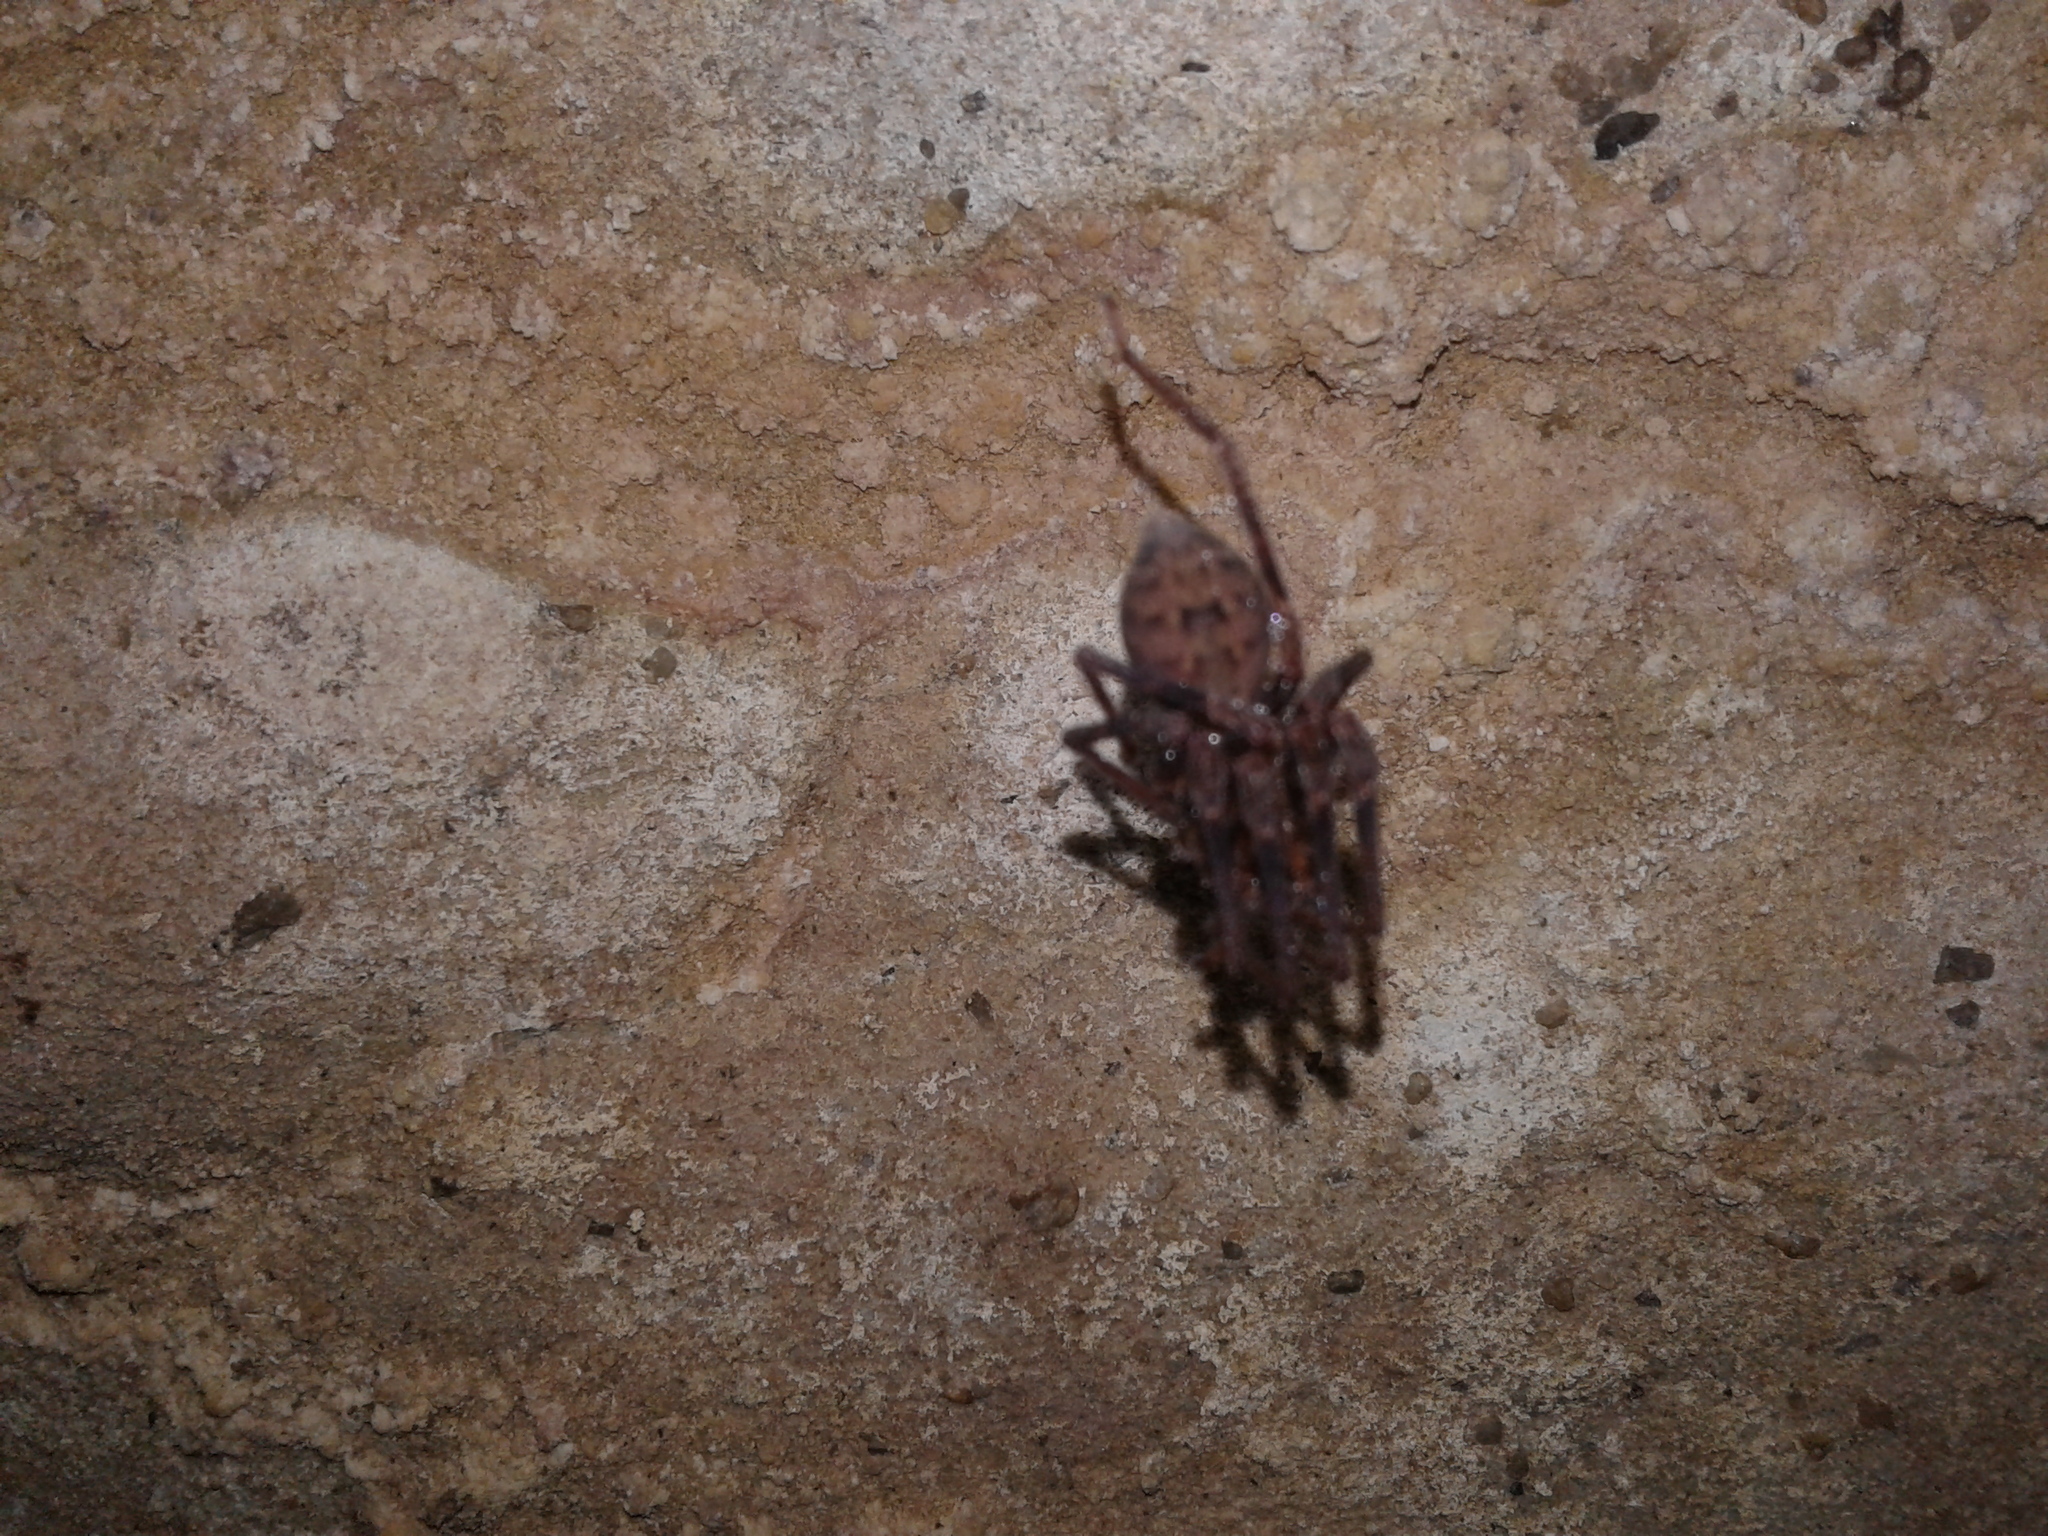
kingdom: Animalia
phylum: Arthropoda
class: Arachnida
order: Araneae
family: Gradungulidae
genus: Spelungula
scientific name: Spelungula cavernicola
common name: Nelson cave spider
